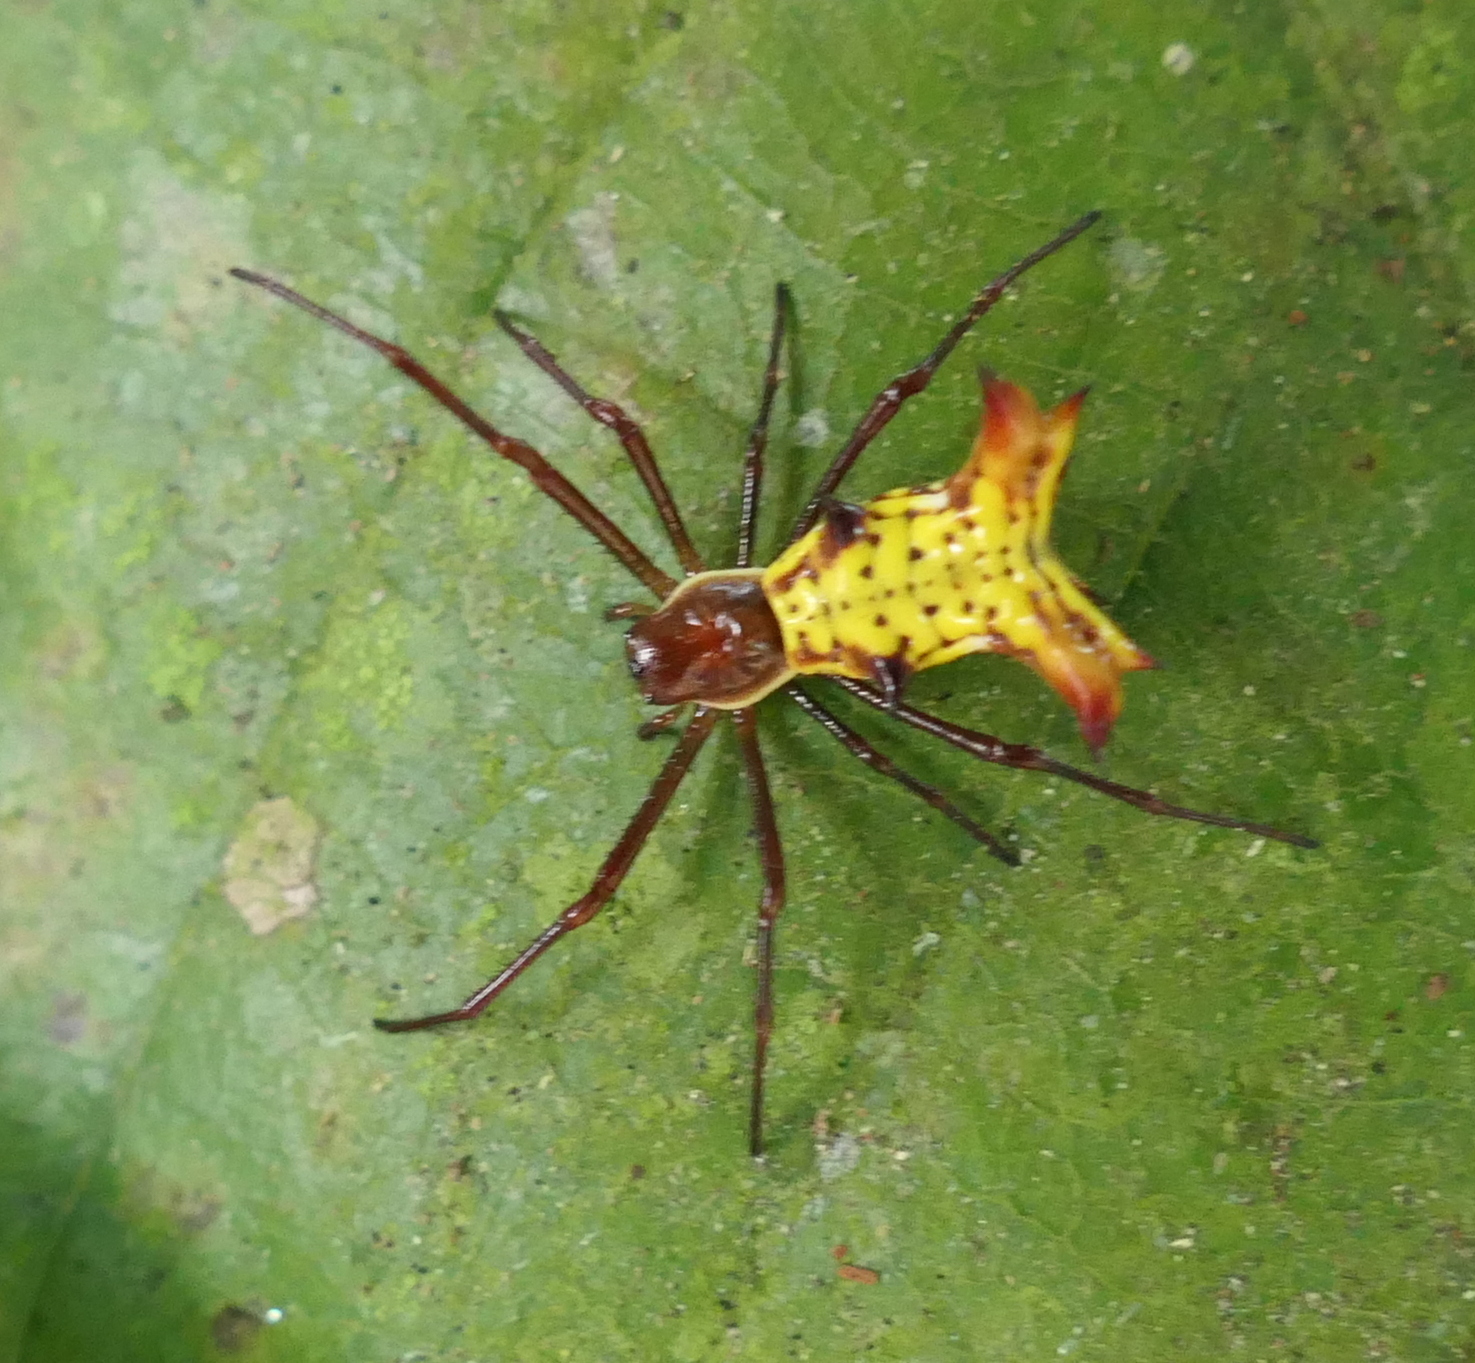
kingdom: Animalia
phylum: Arthropoda
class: Arachnida
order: Araneae
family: Araneidae
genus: Micrathena
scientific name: Micrathena fissispina
